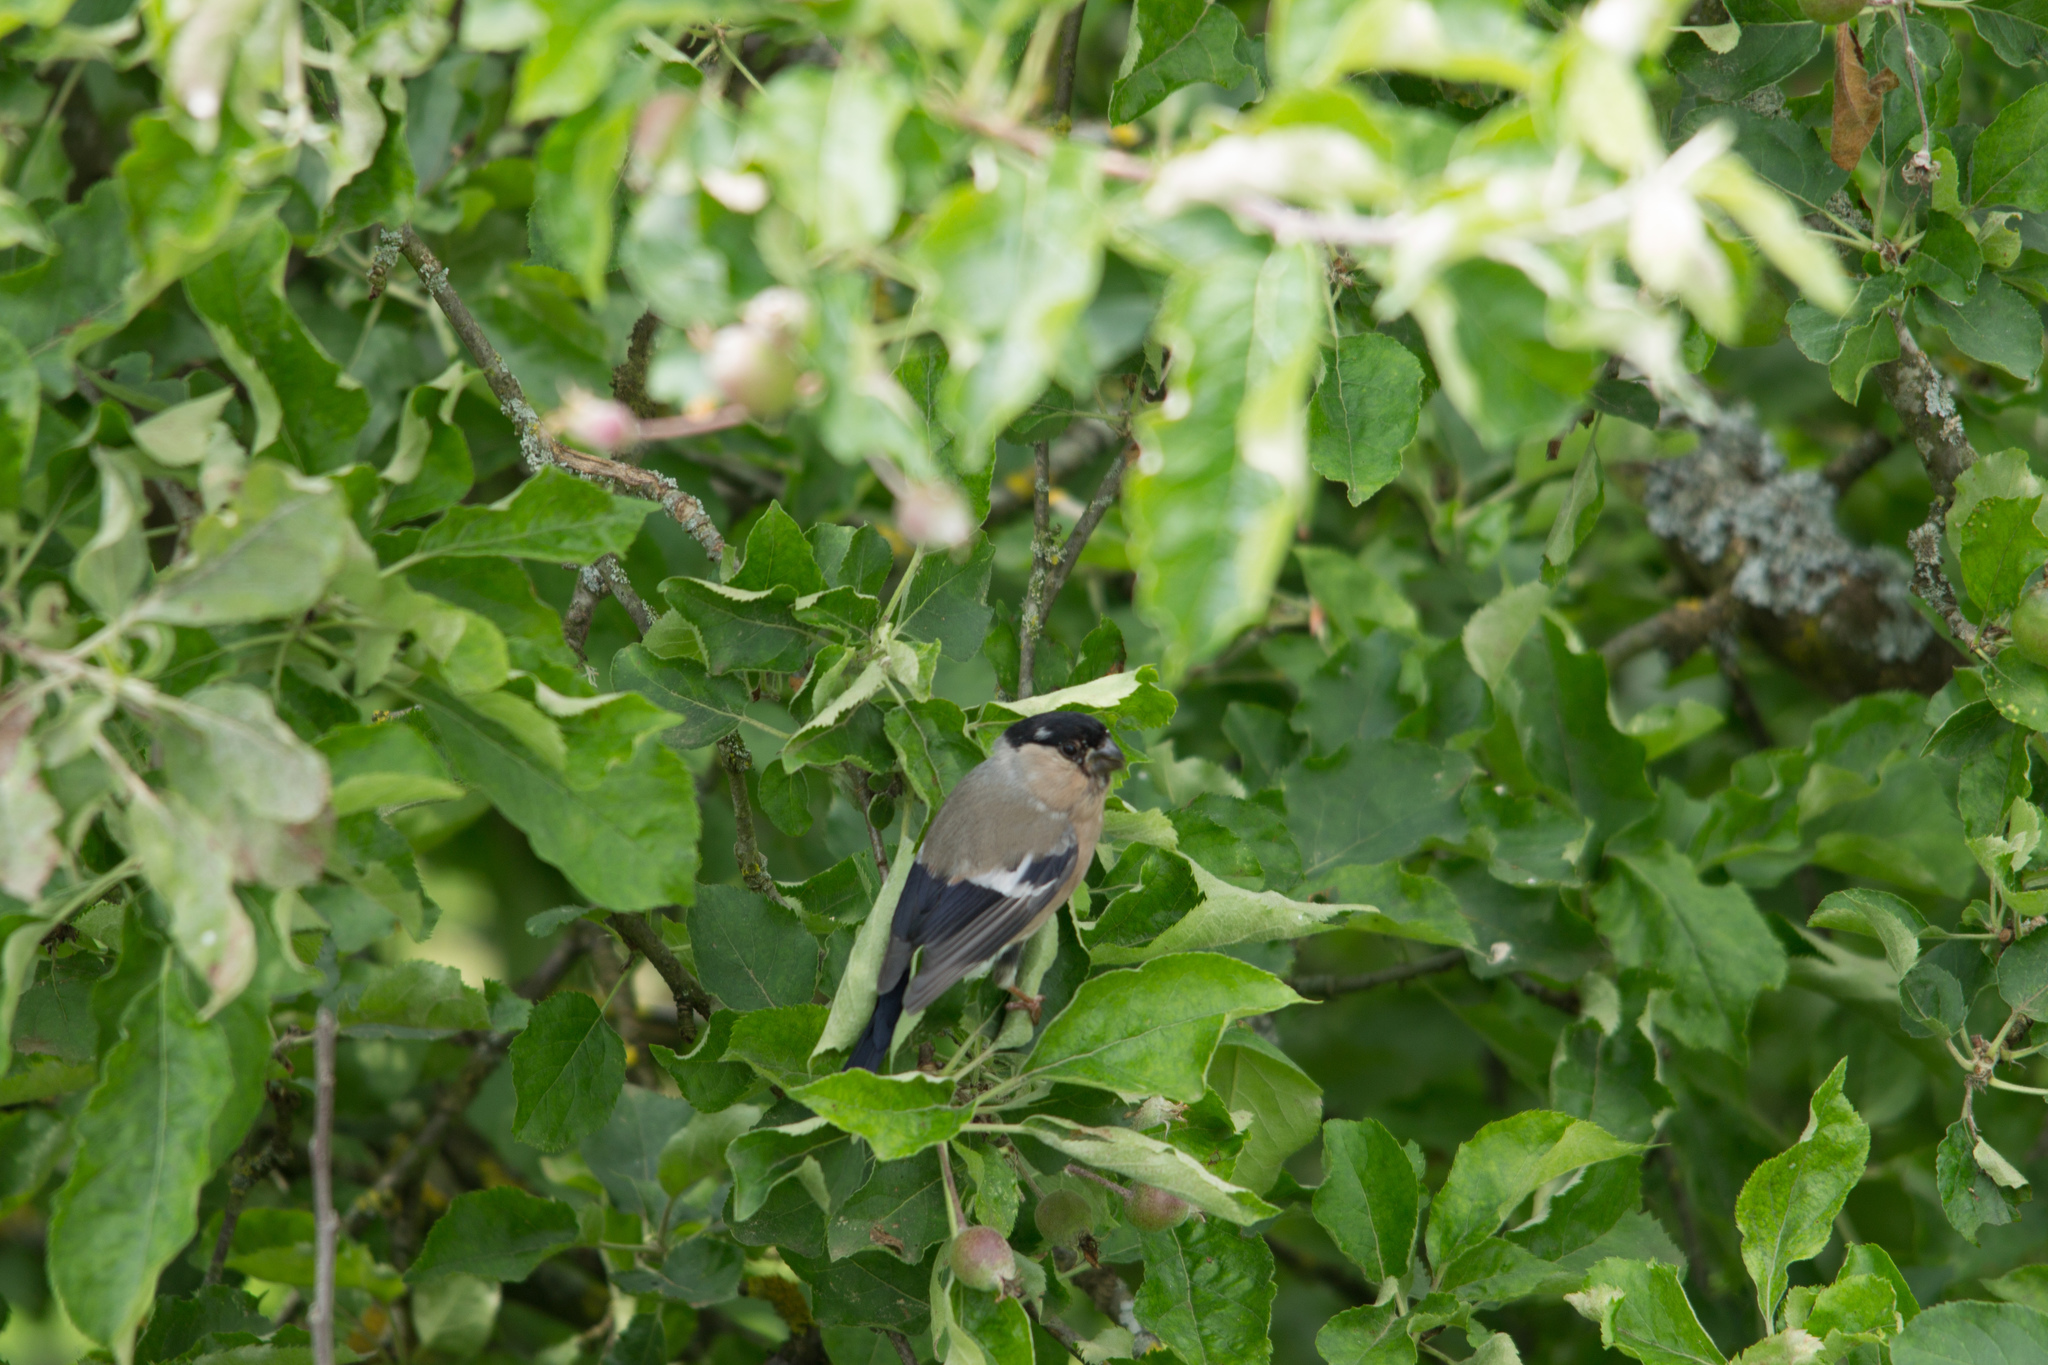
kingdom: Animalia
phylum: Chordata
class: Aves
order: Passeriformes
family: Fringillidae
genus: Pyrrhula
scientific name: Pyrrhula pyrrhula
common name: Eurasian bullfinch
